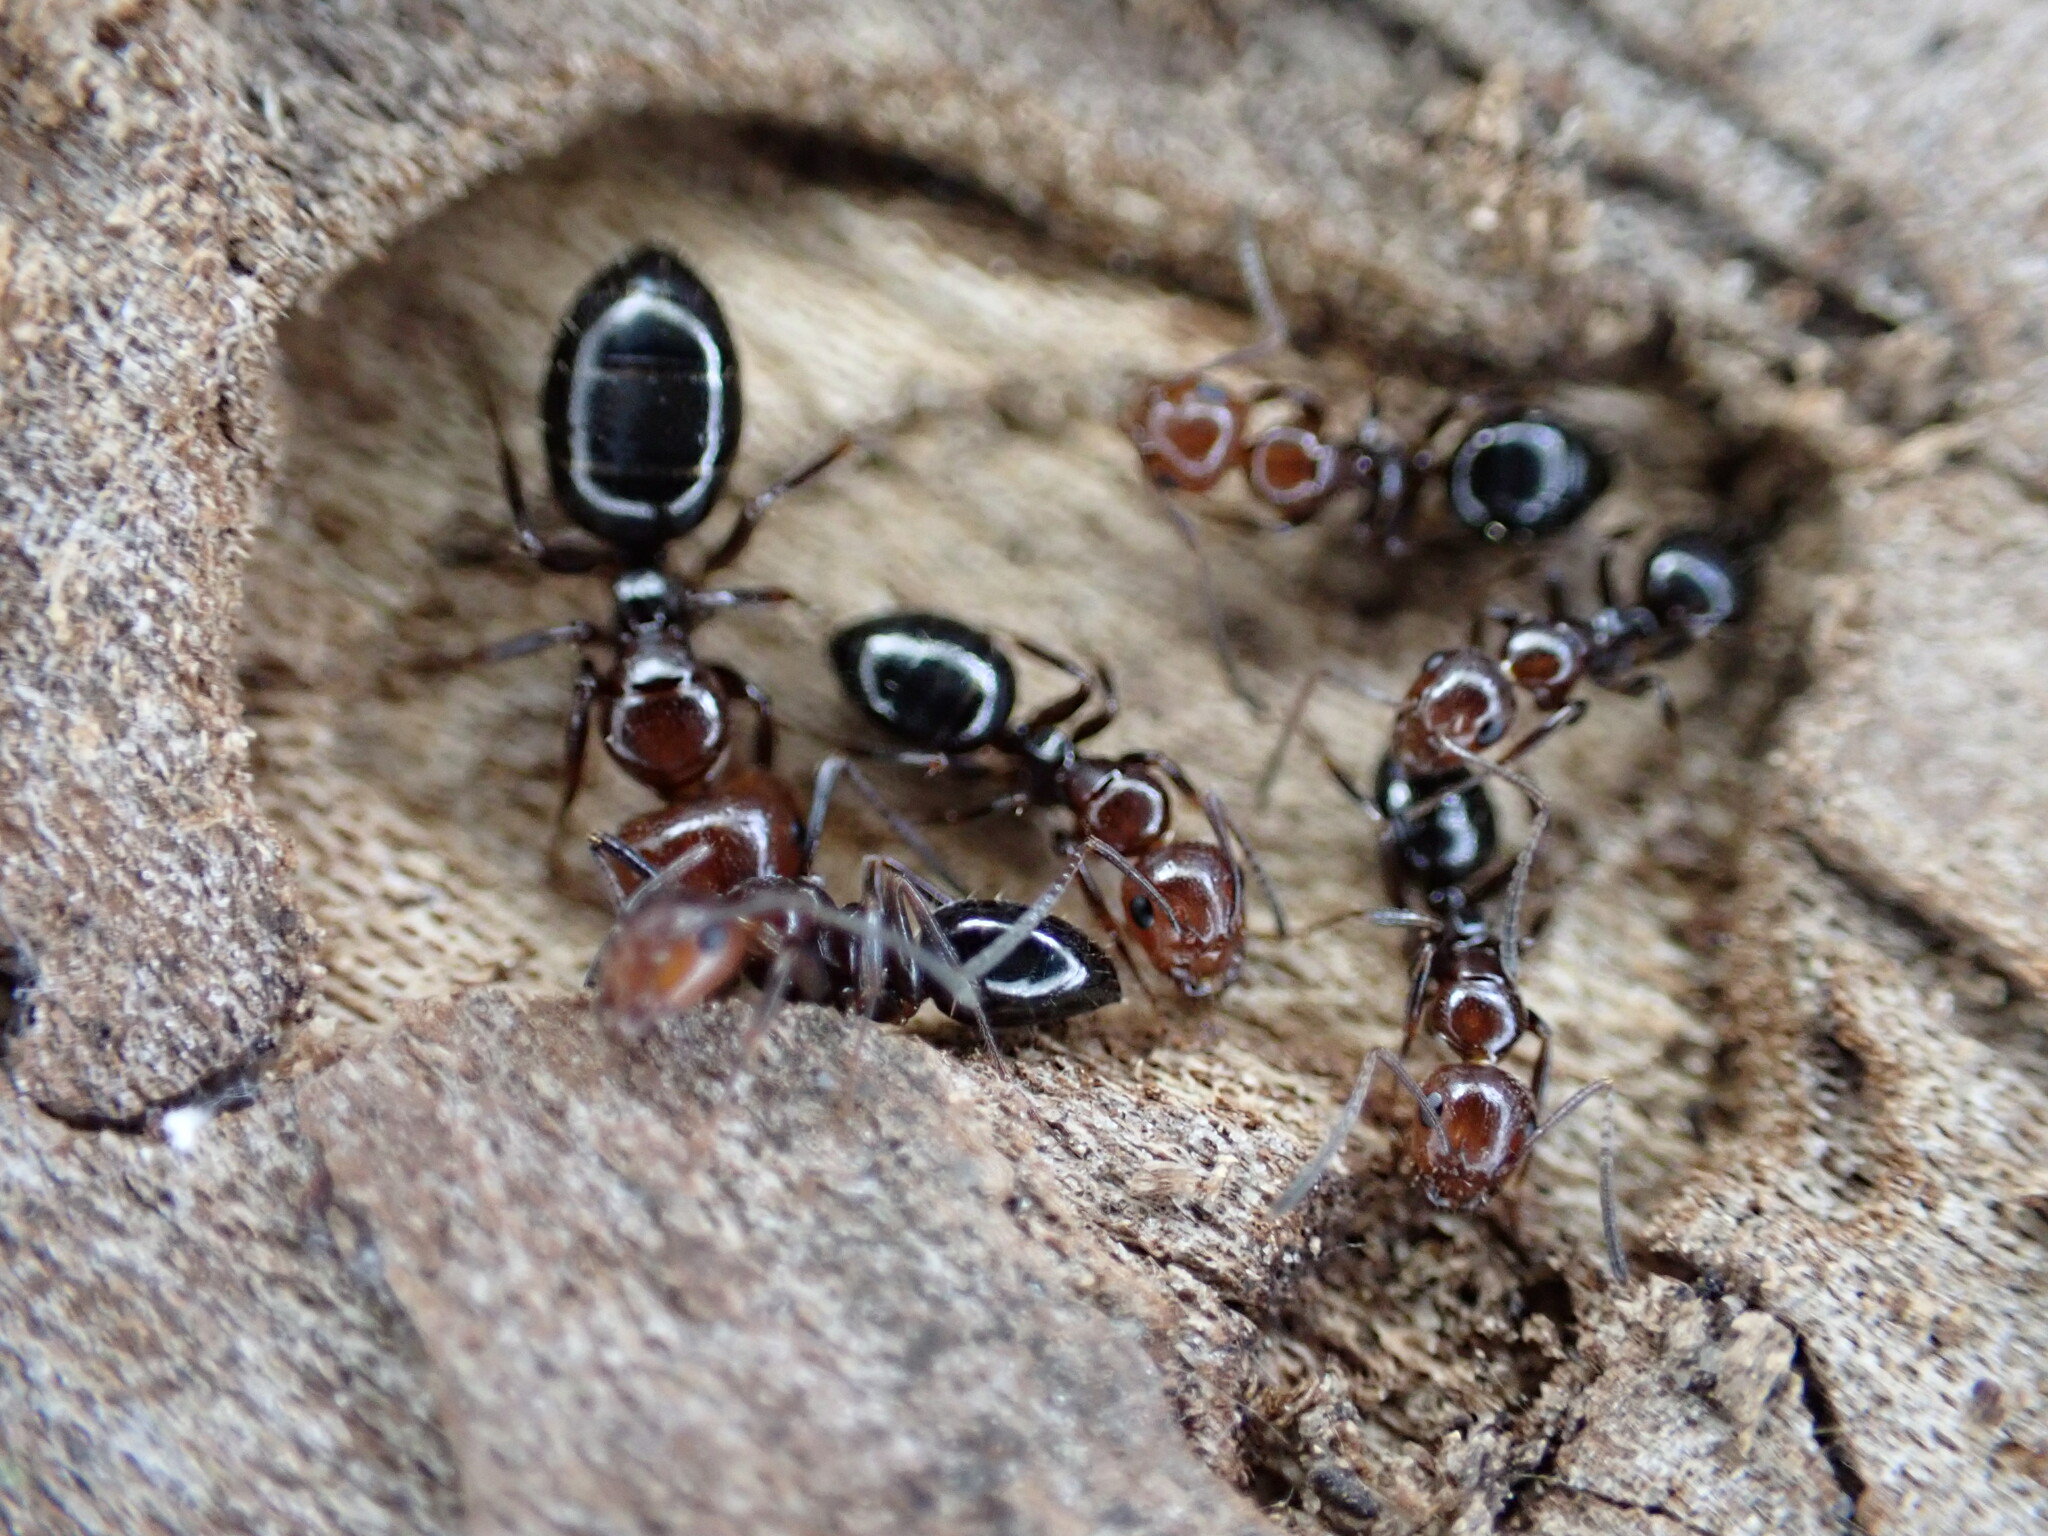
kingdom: Animalia
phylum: Arthropoda
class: Insecta
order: Hymenoptera
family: Formicidae
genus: Camponotus
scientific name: Camponotus lateralis
